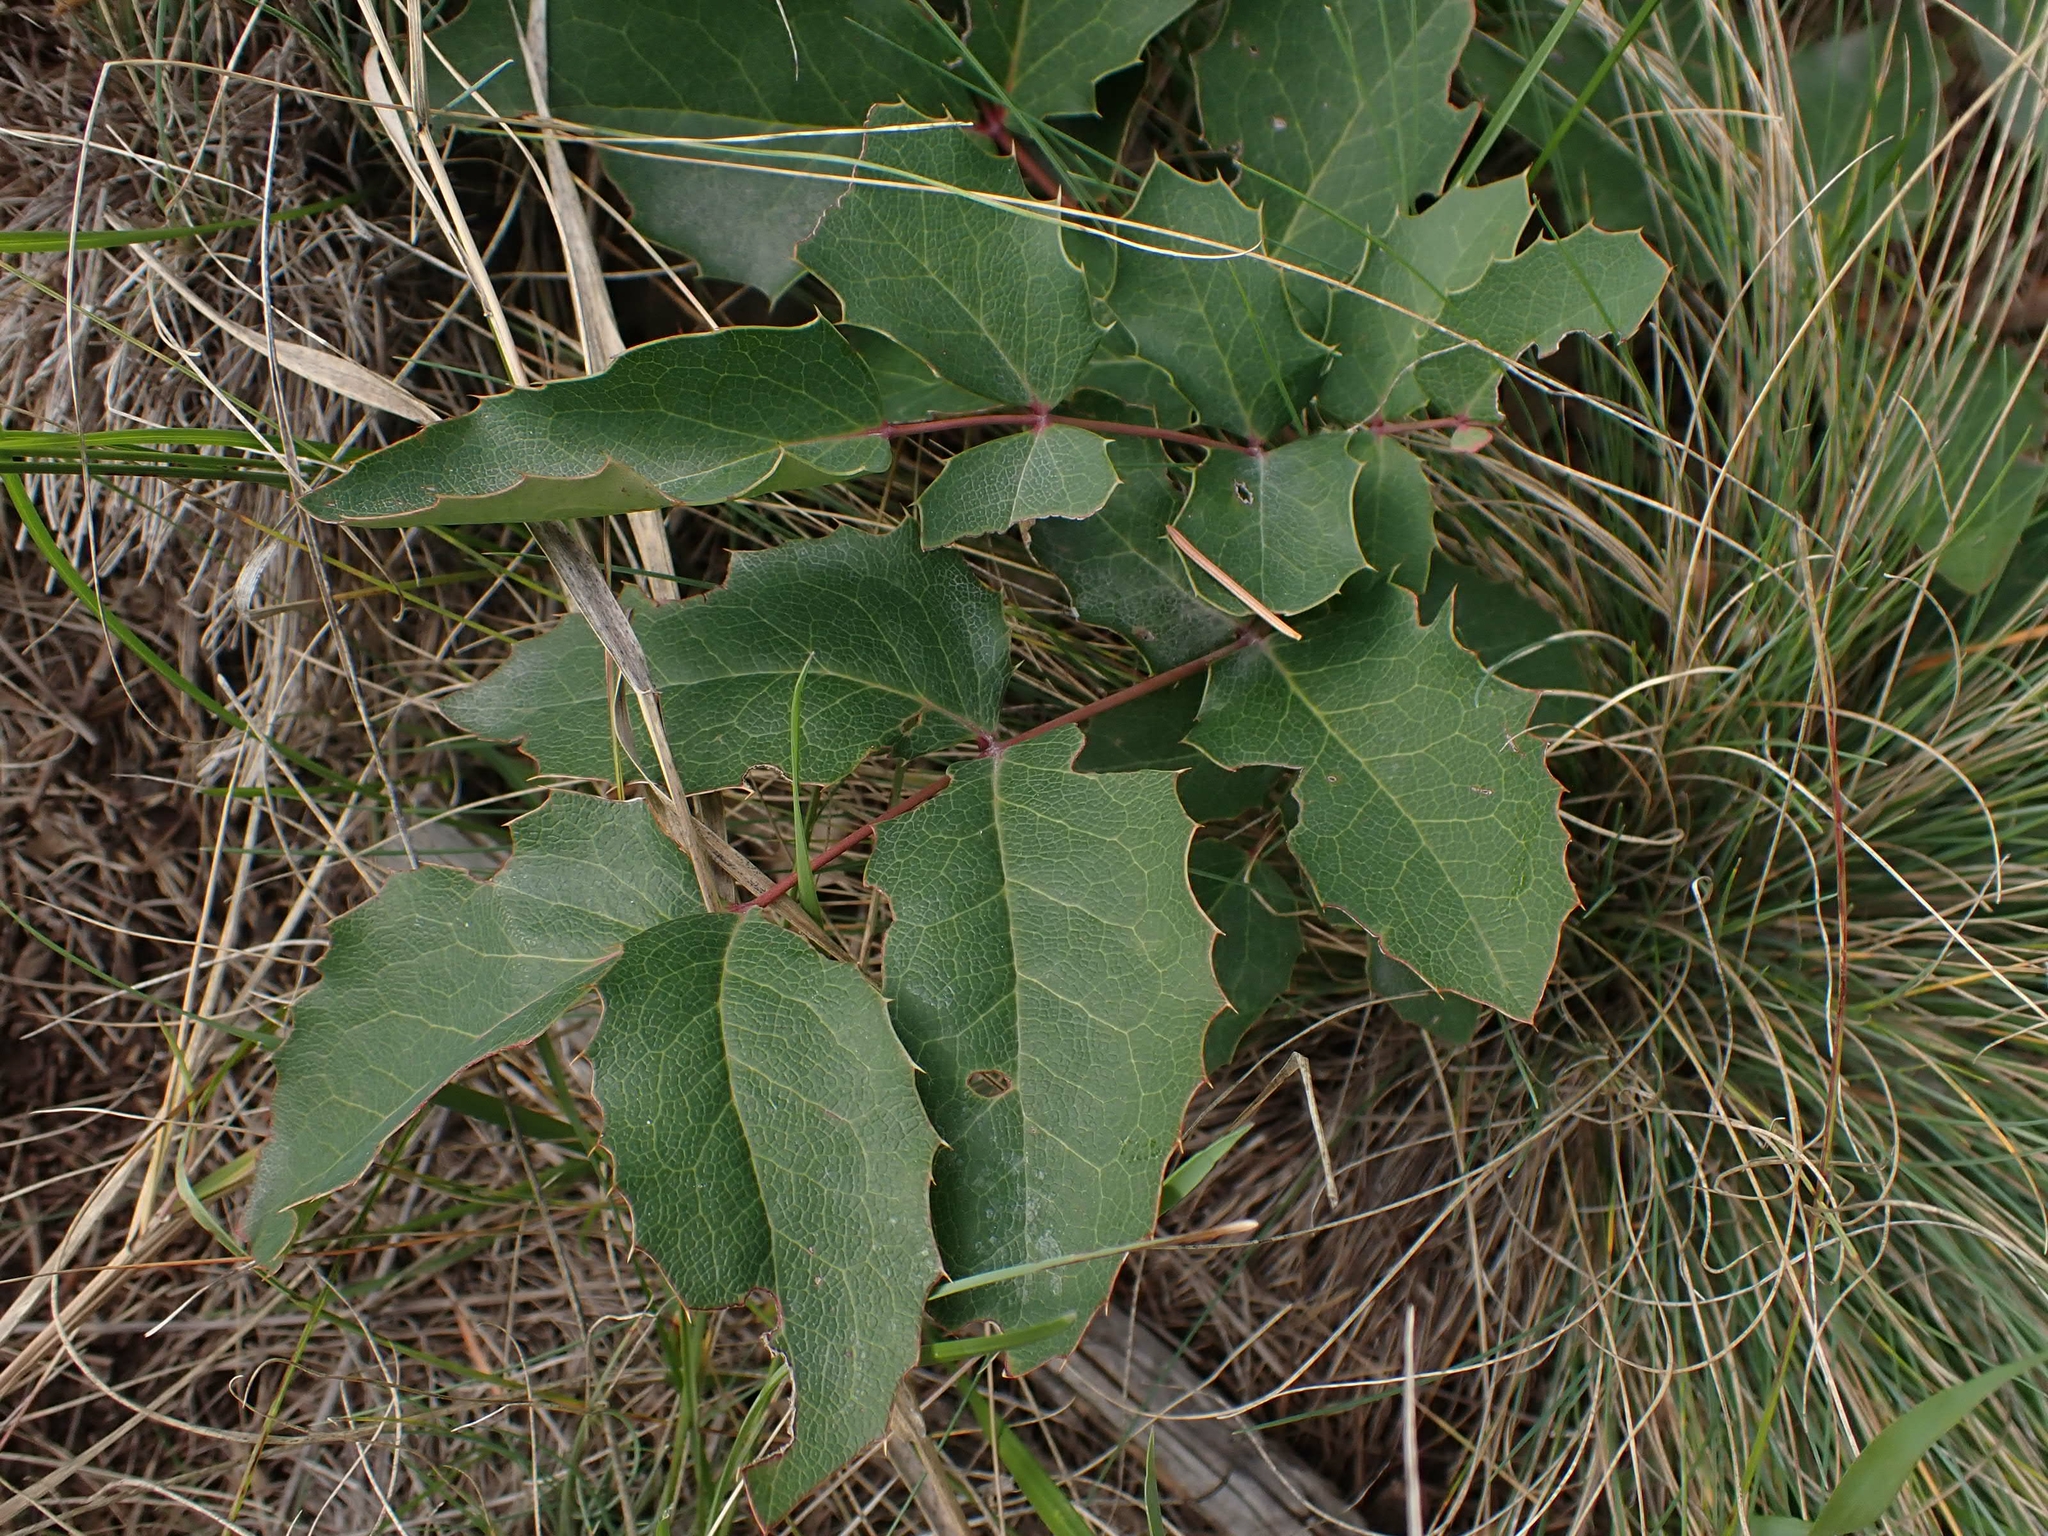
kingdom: Plantae
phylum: Tracheophyta
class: Magnoliopsida
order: Ranunculales
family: Berberidaceae
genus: Mahonia
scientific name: Mahonia repens
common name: Creeping oregon-grape
